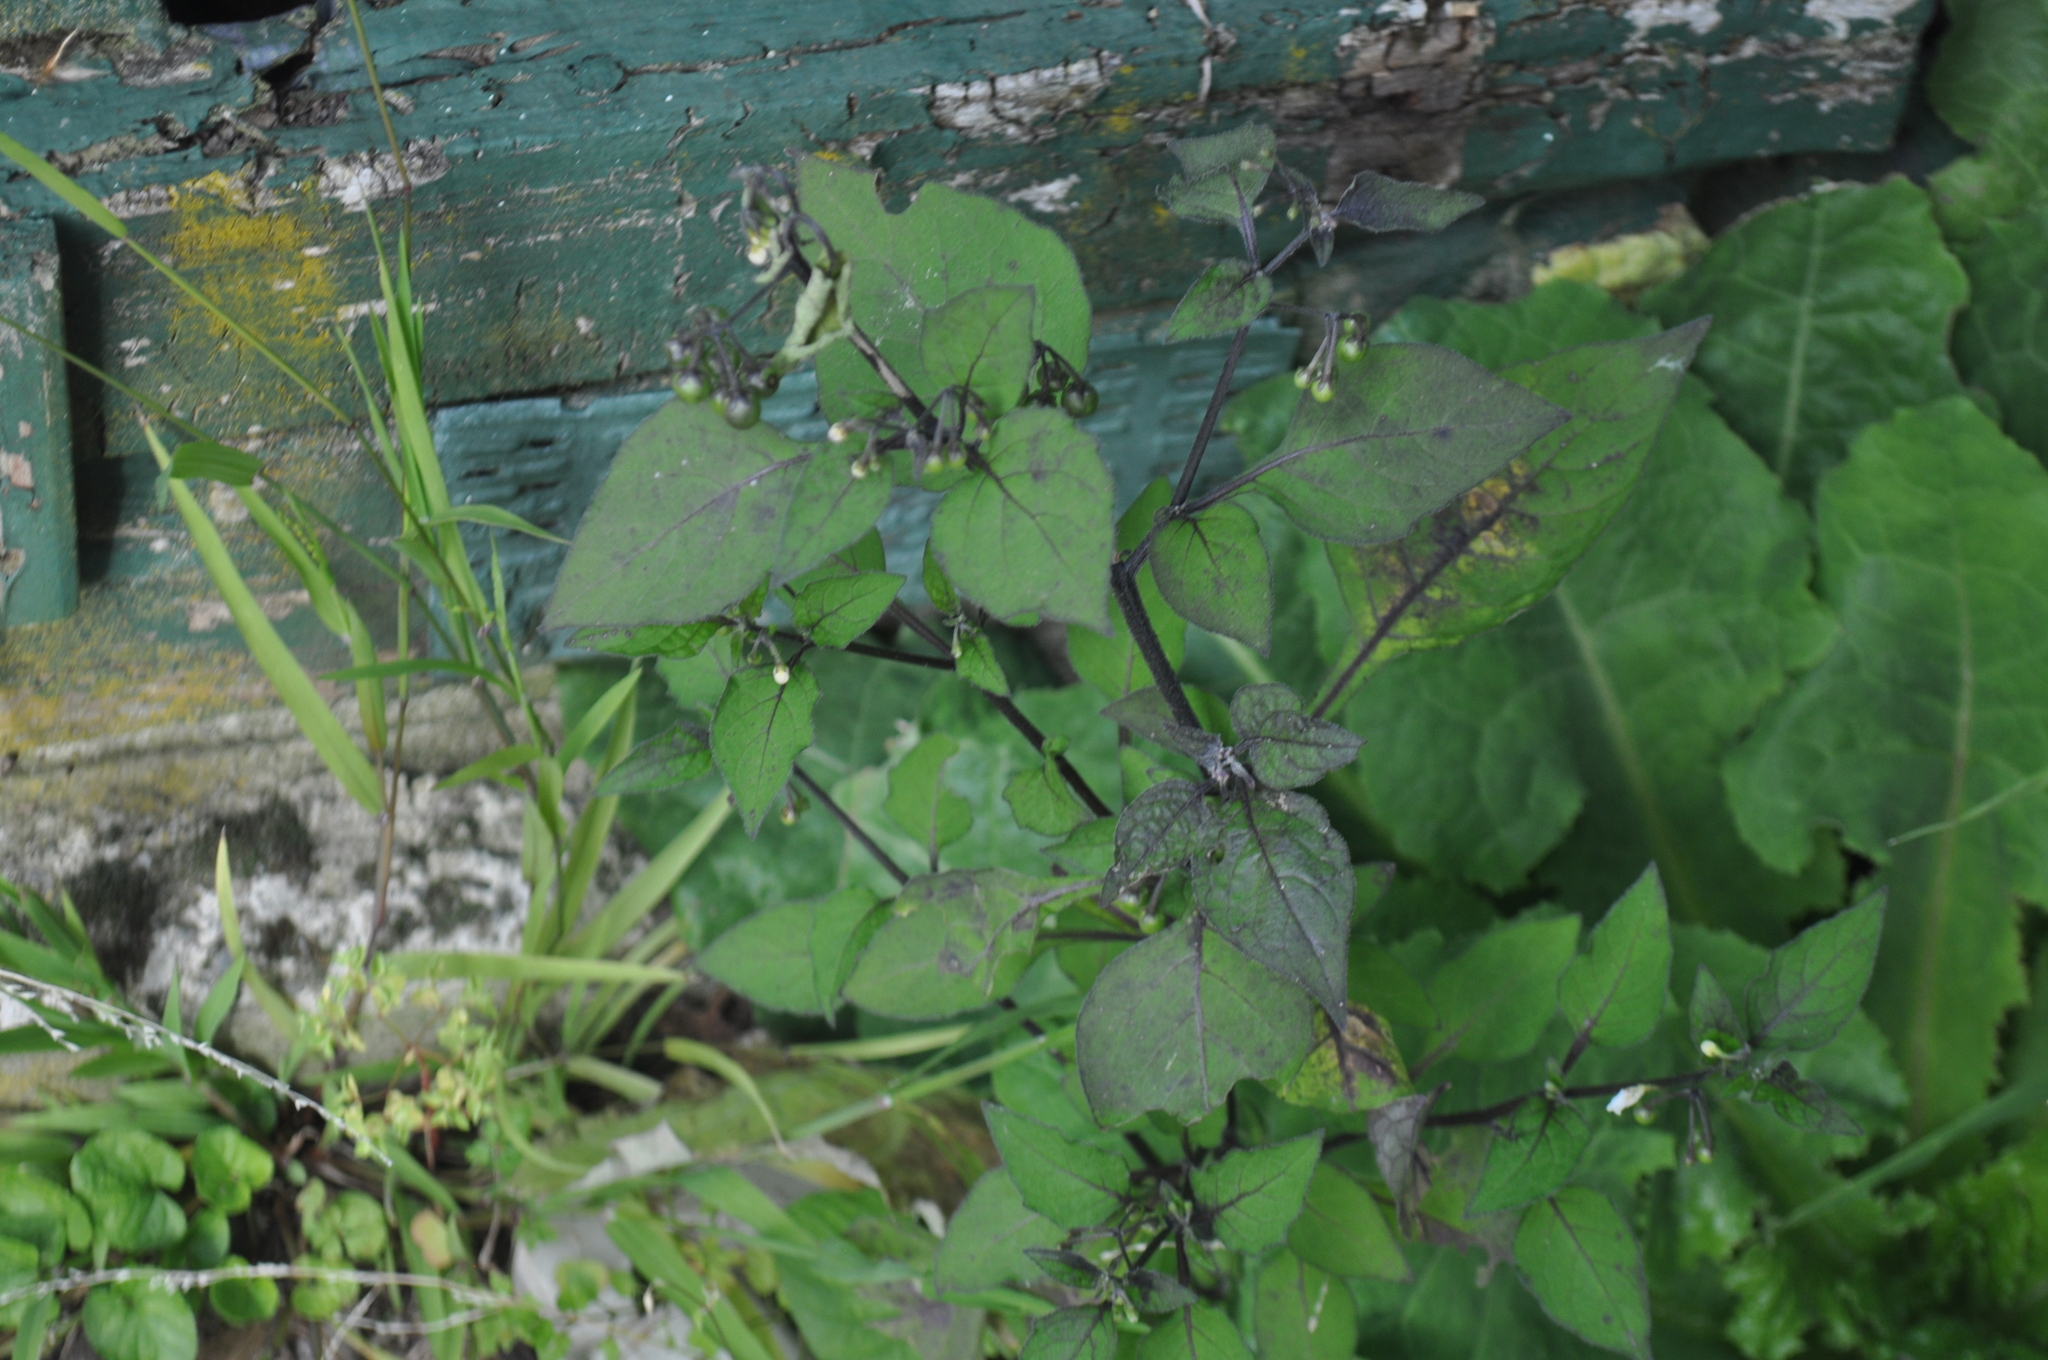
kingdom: Plantae
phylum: Tracheophyta
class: Magnoliopsida
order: Solanales
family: Solanaceae
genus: Solanum
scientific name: Solanum nigrum
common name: Black nightshade
